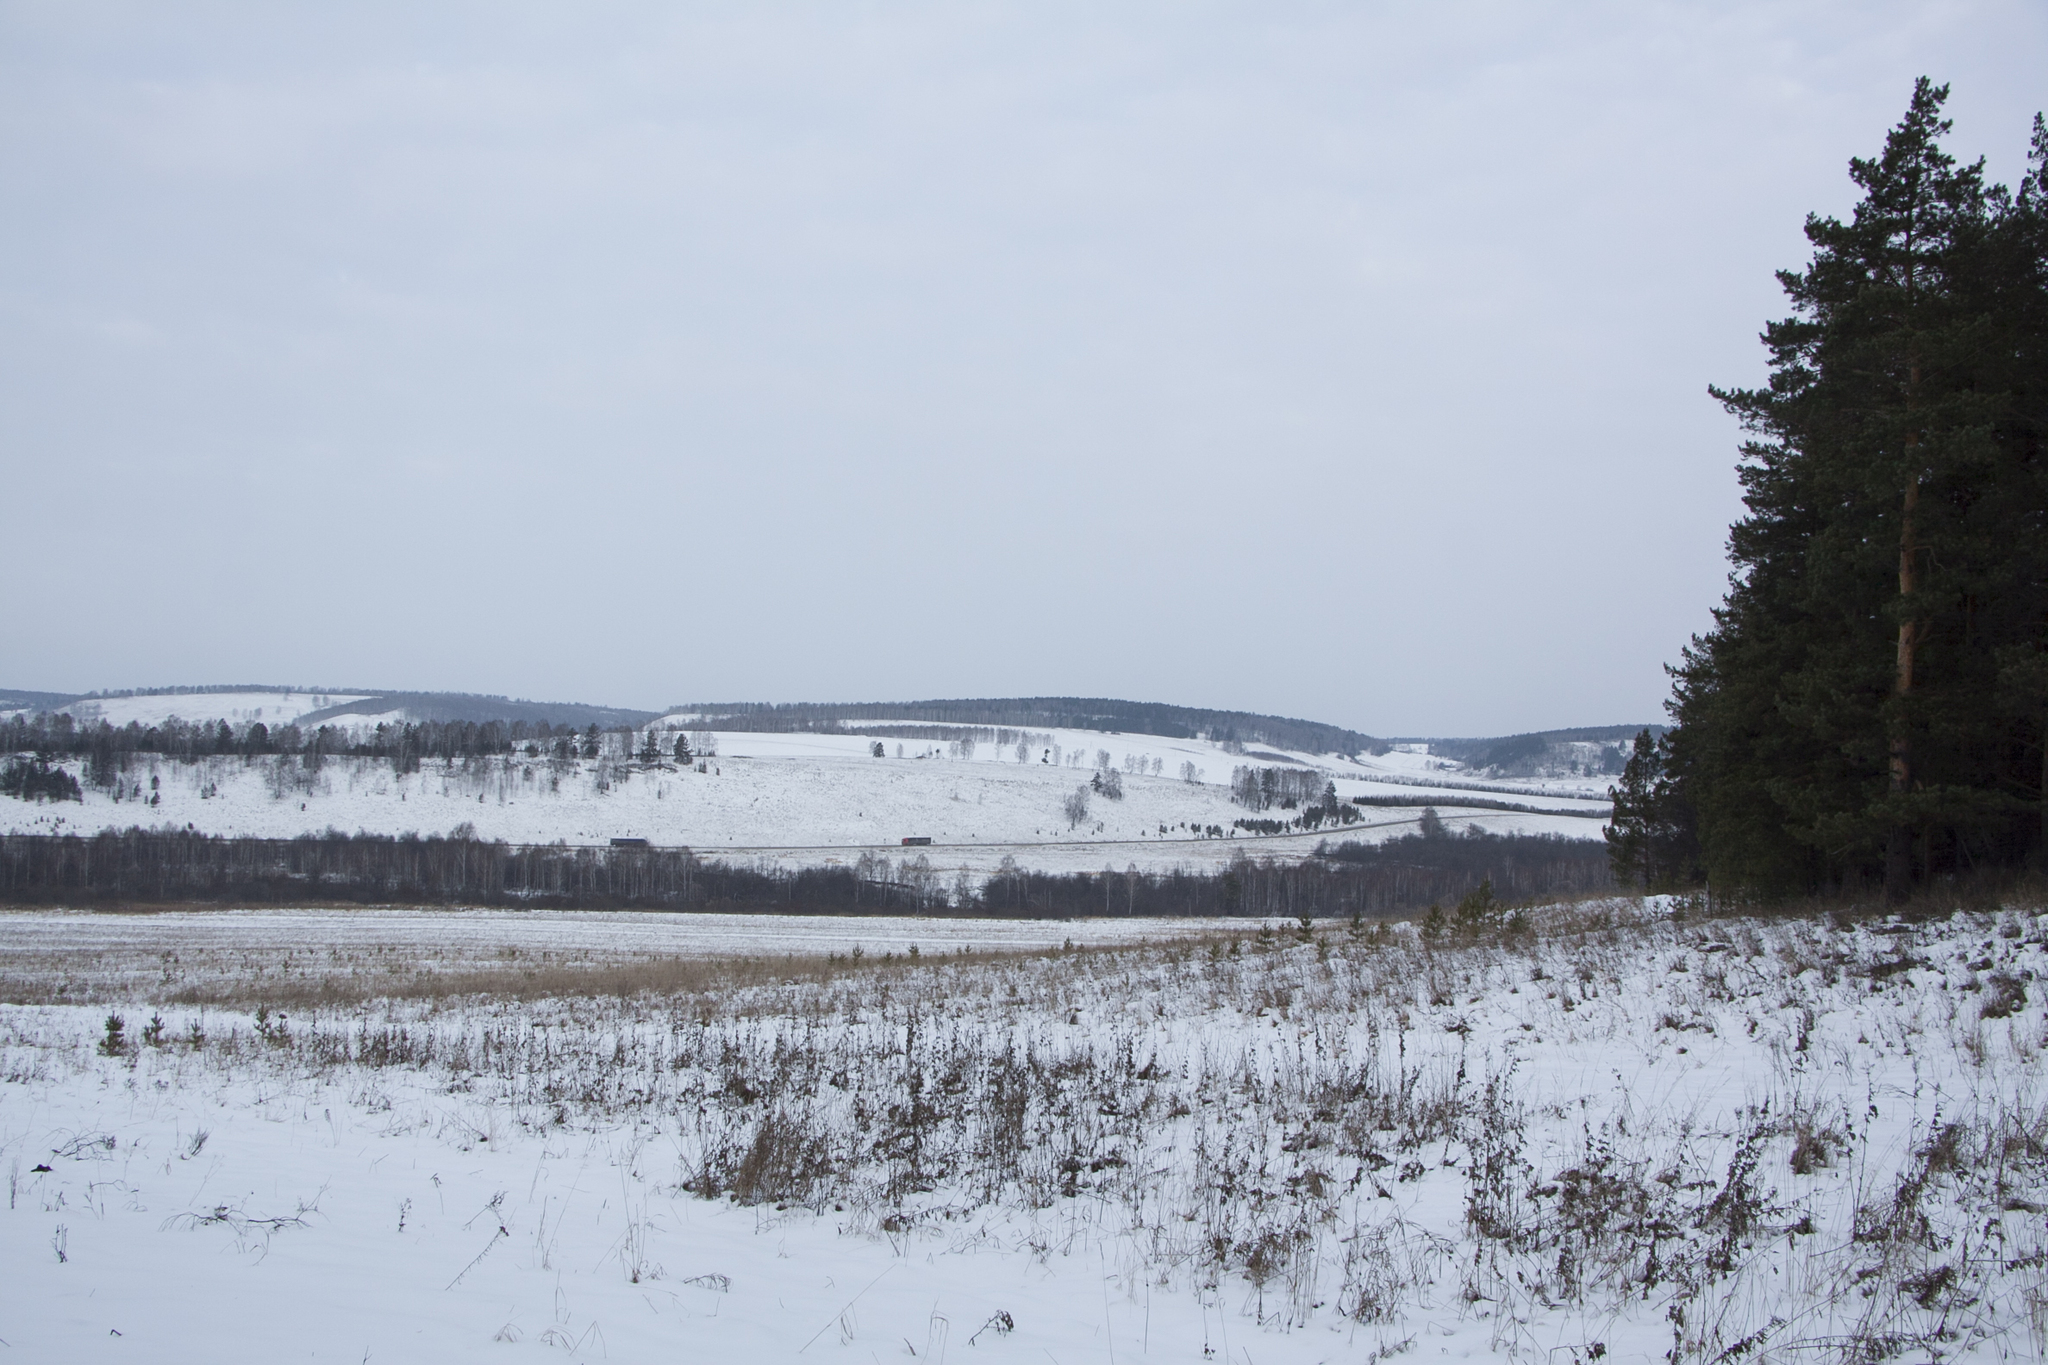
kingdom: Plantae
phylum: Tracheophyta
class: Pinopsida
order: Pinales
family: Pinaceae
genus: Pinus
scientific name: Pinus sylvestris
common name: Scots pine
